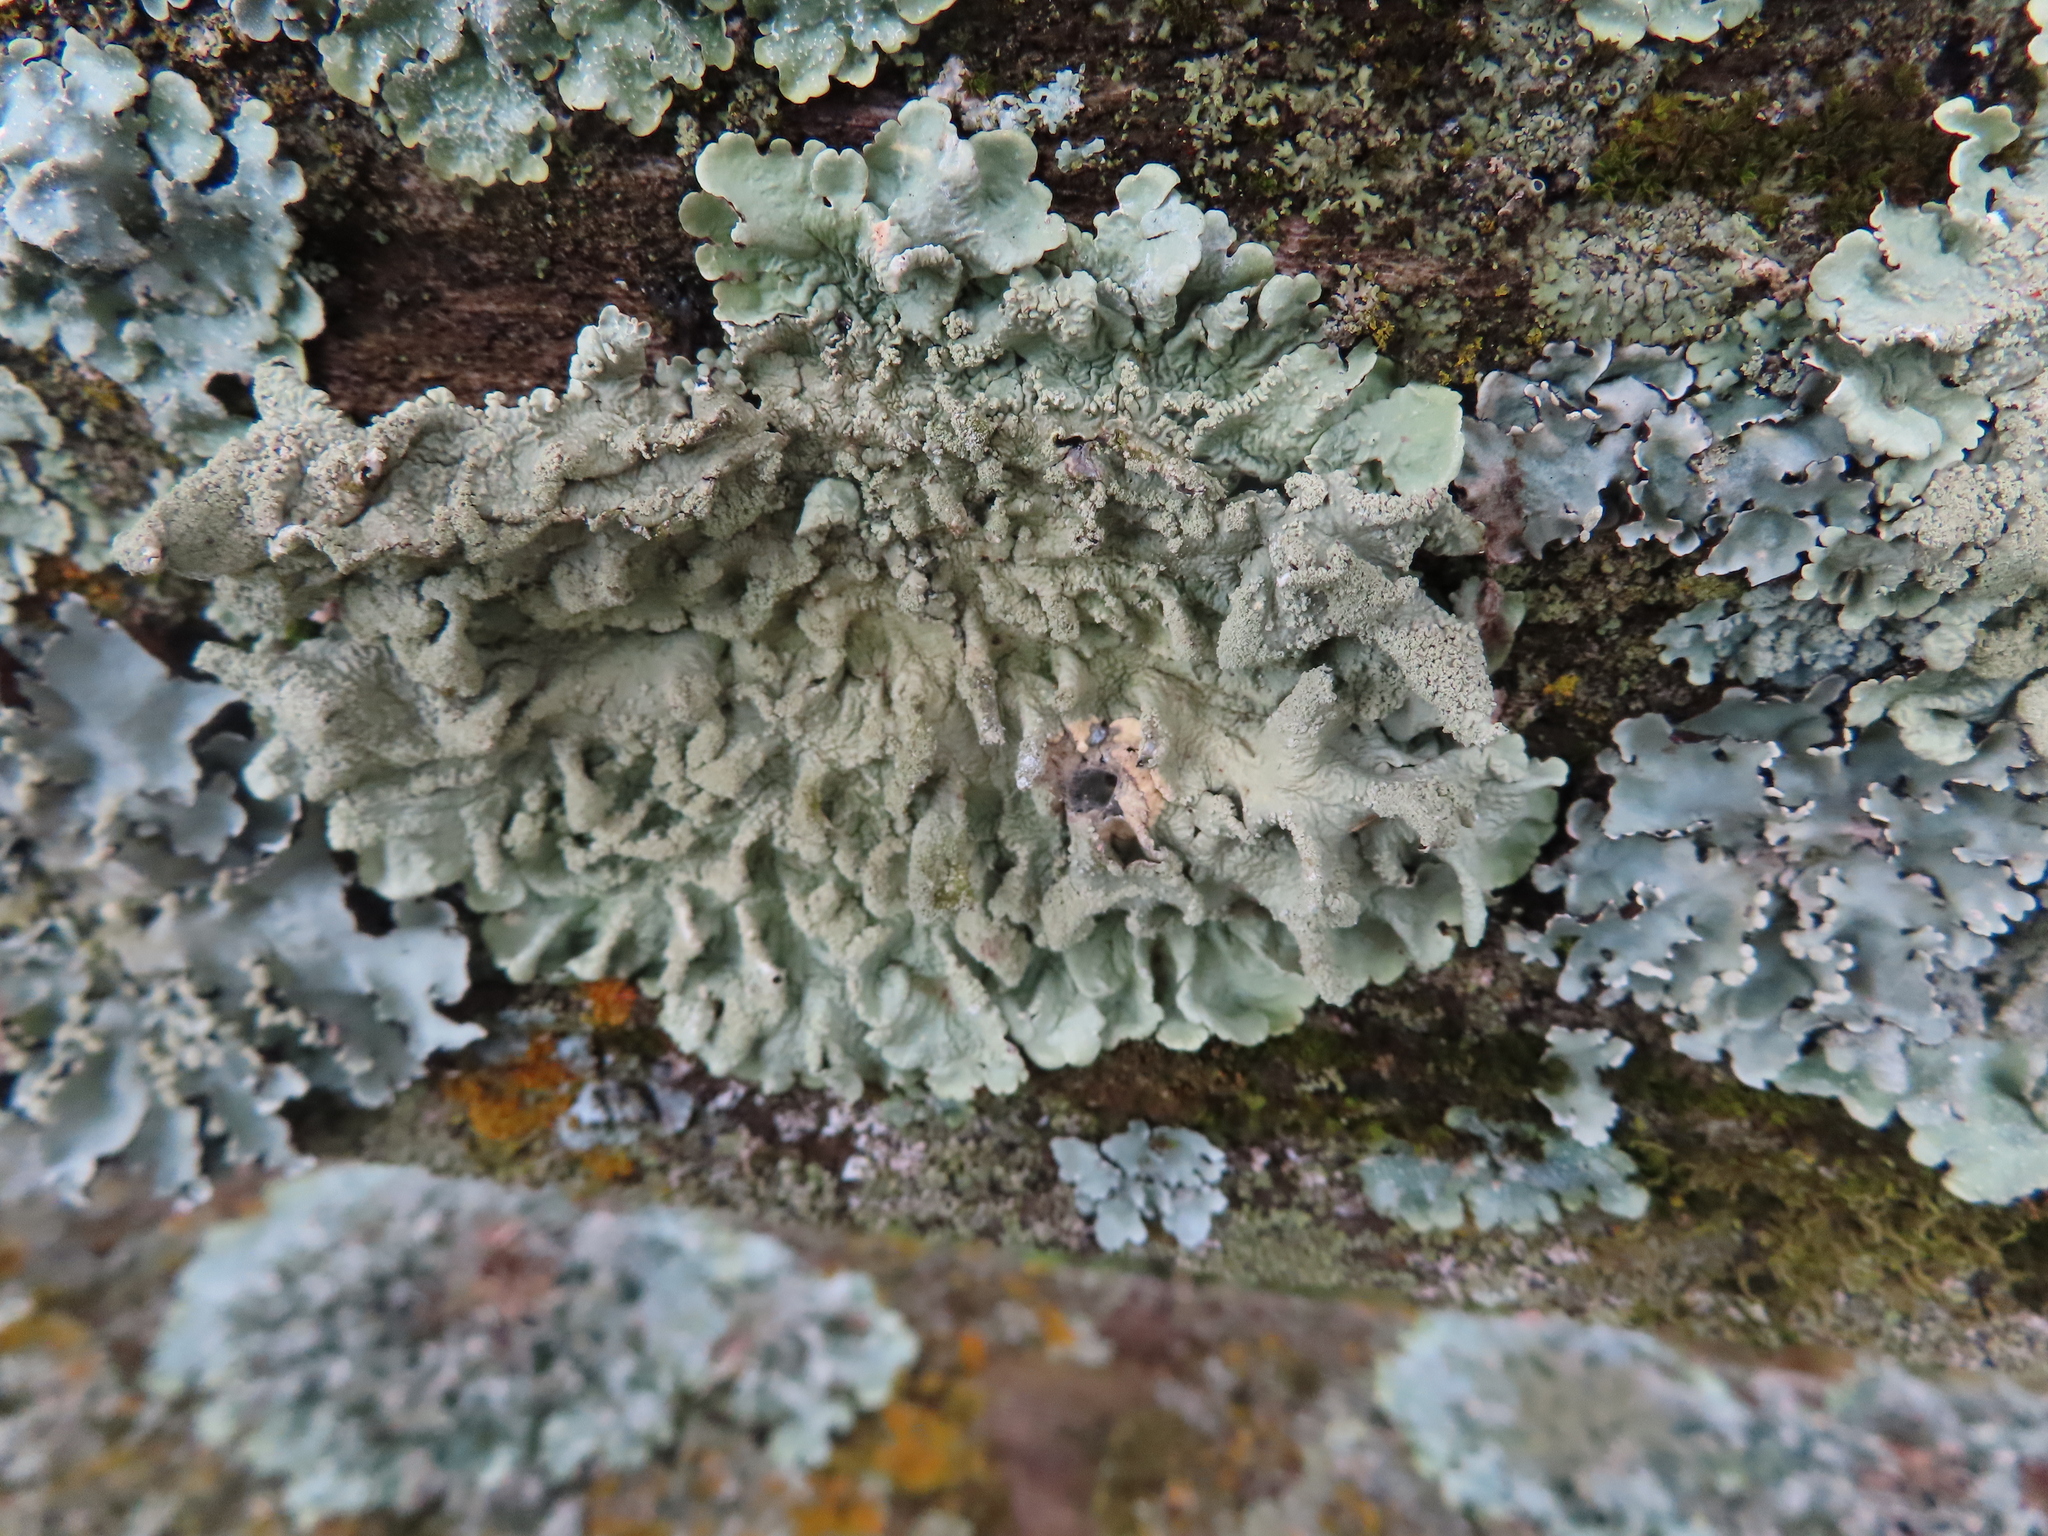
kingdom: Fungi
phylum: Ascomycota
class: Lecanoromycetes
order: Lecanorales
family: Parmeliaceae
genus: Flavoparmelia
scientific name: Flavoparmelia caperata
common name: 40-mile per hour lichen
